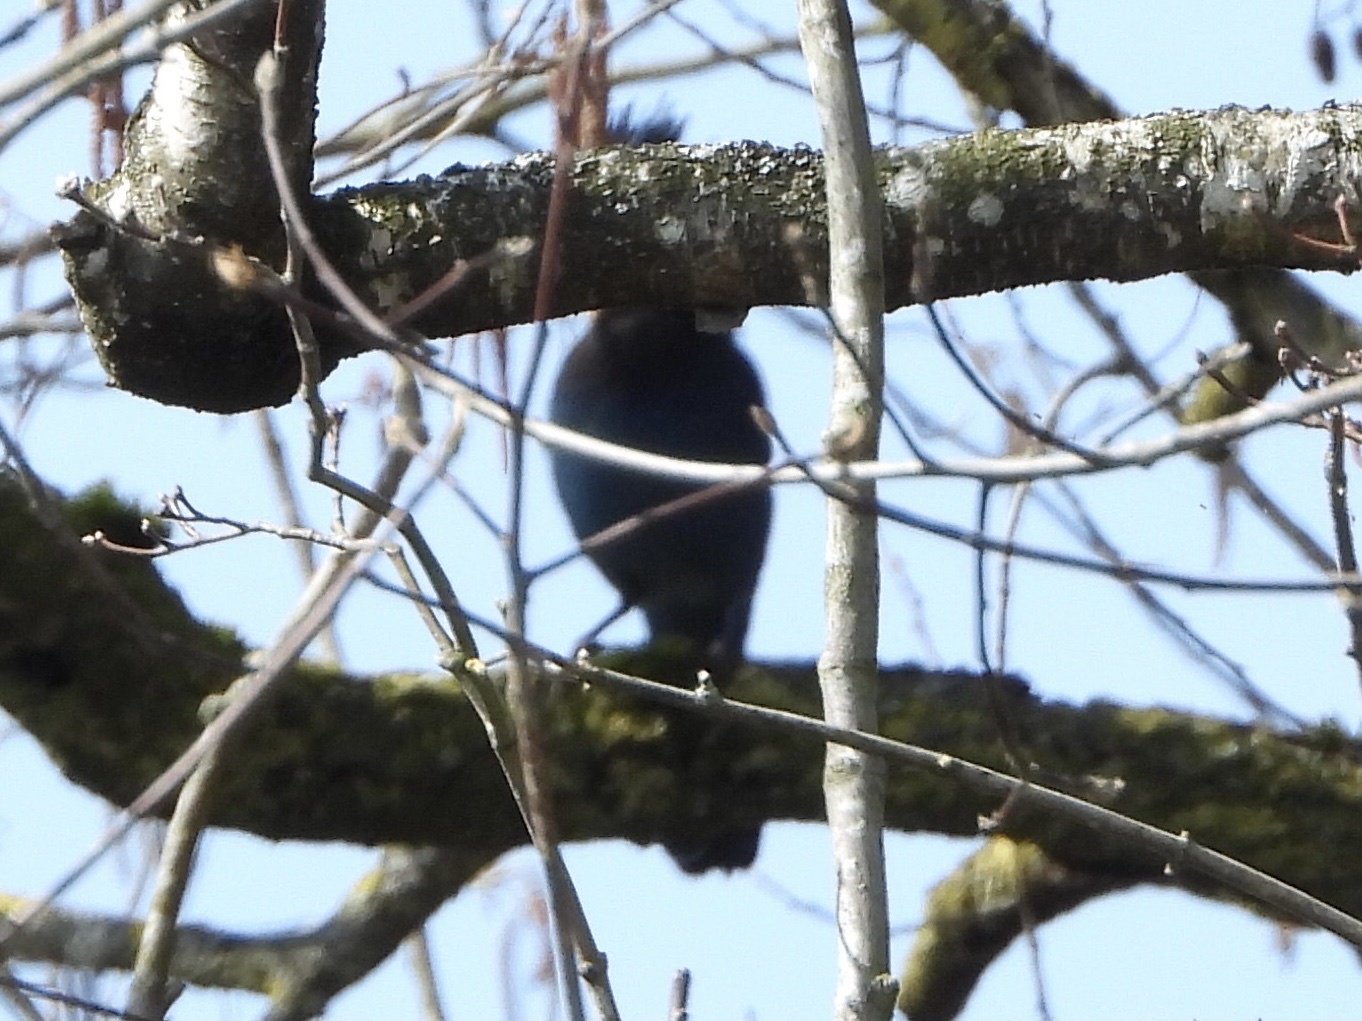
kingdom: Animalia
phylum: Chordata
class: Aves
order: Passeriformes
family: Corvidae
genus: Cyanocitta
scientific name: Cyanocitta stelleri
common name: Steller's jay
